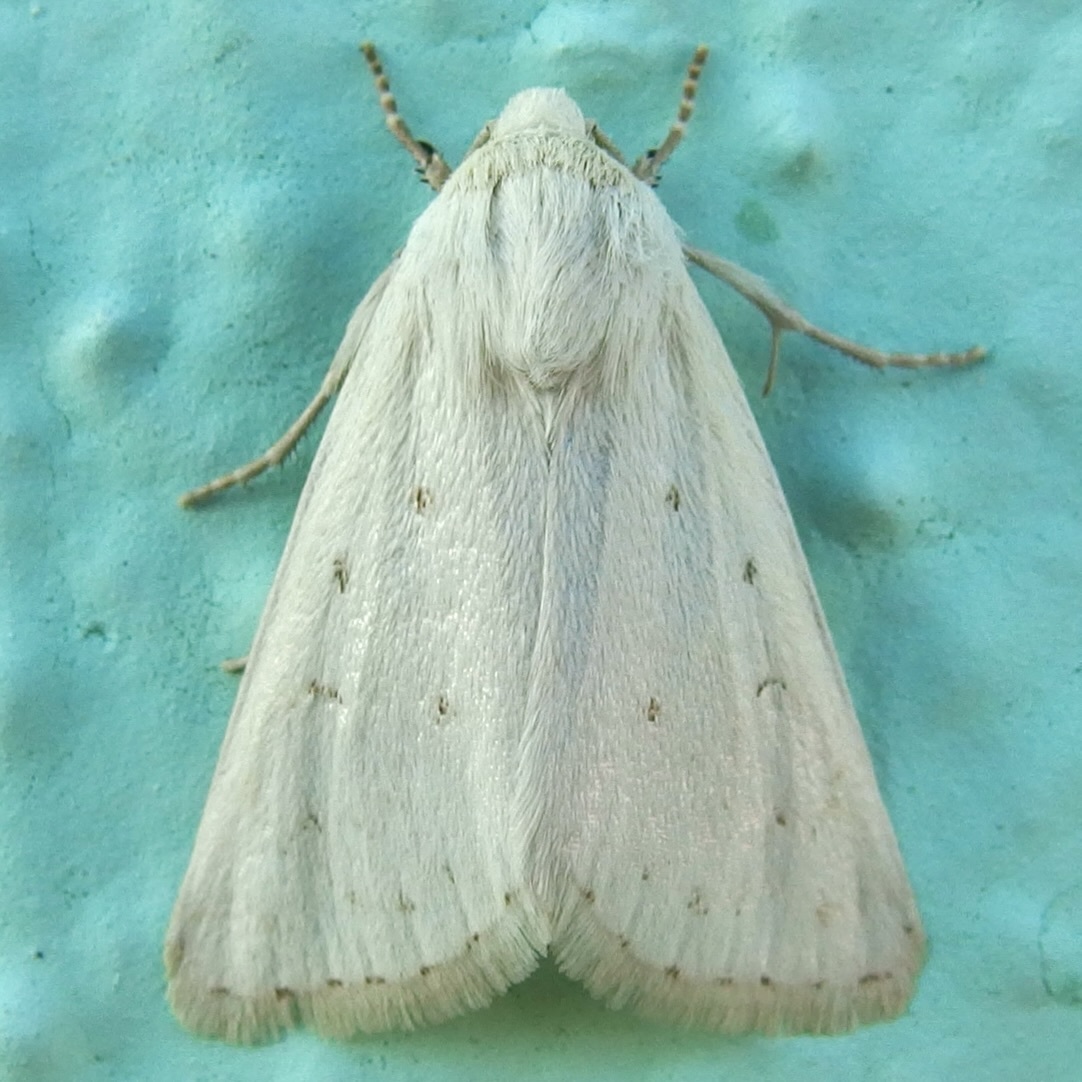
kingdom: Animalia
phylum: Arthropoda
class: Insecta
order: Lepidoptera
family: Noctuidae
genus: Schinia
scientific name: Schinia luxa
